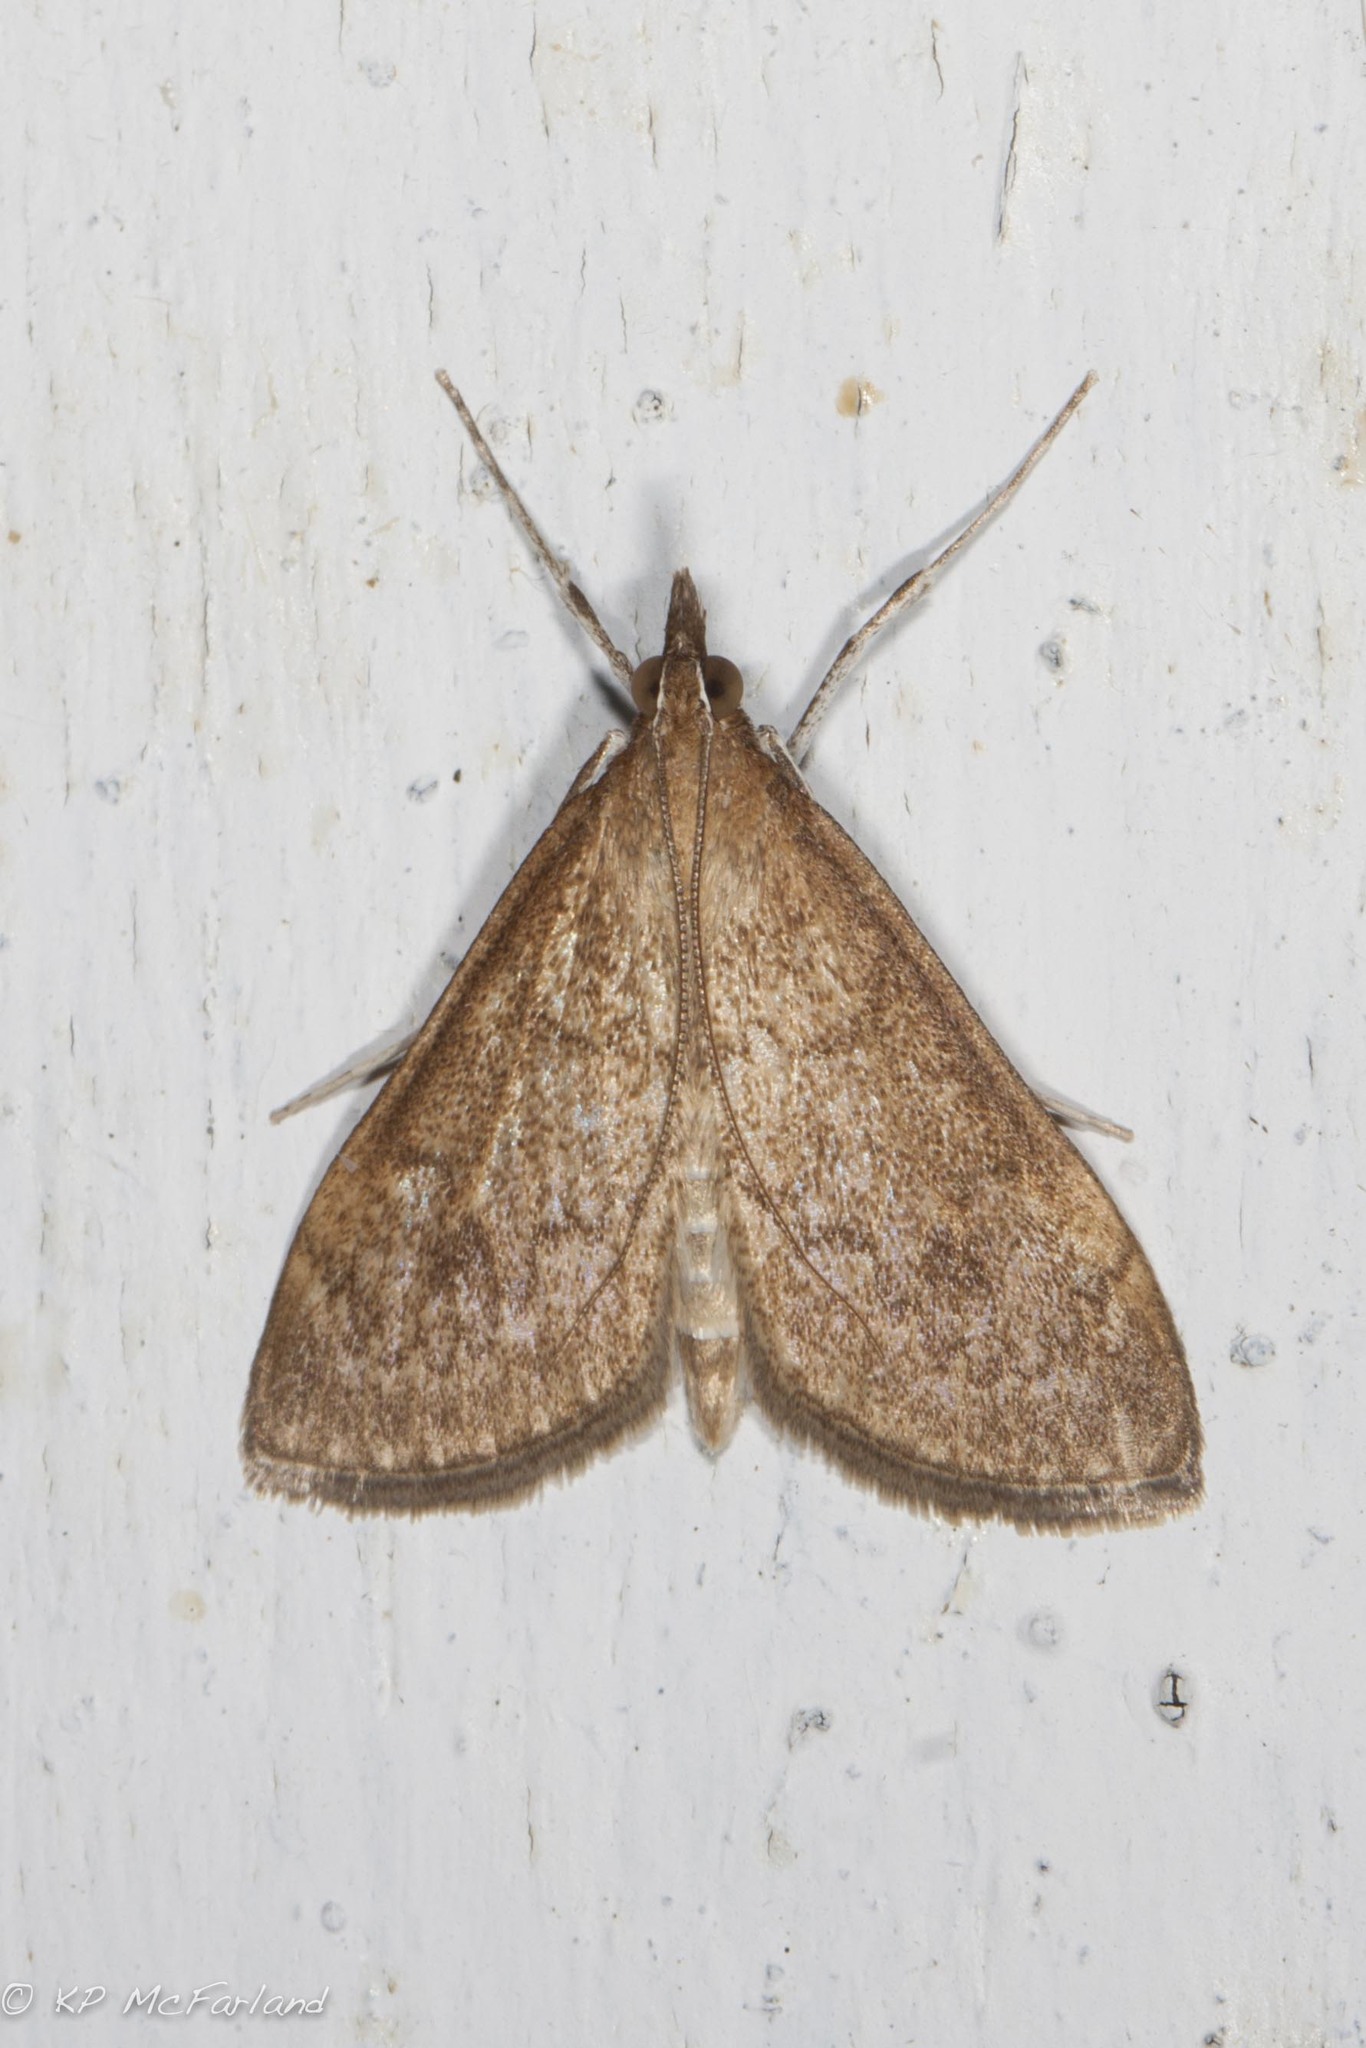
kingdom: Animalia
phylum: Arthropoda
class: Insecta
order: Lepidoptera
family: Crambidae
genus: Saucrobotys
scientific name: Saucrobotys futilalis
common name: Dogbane saucrobotys moth
